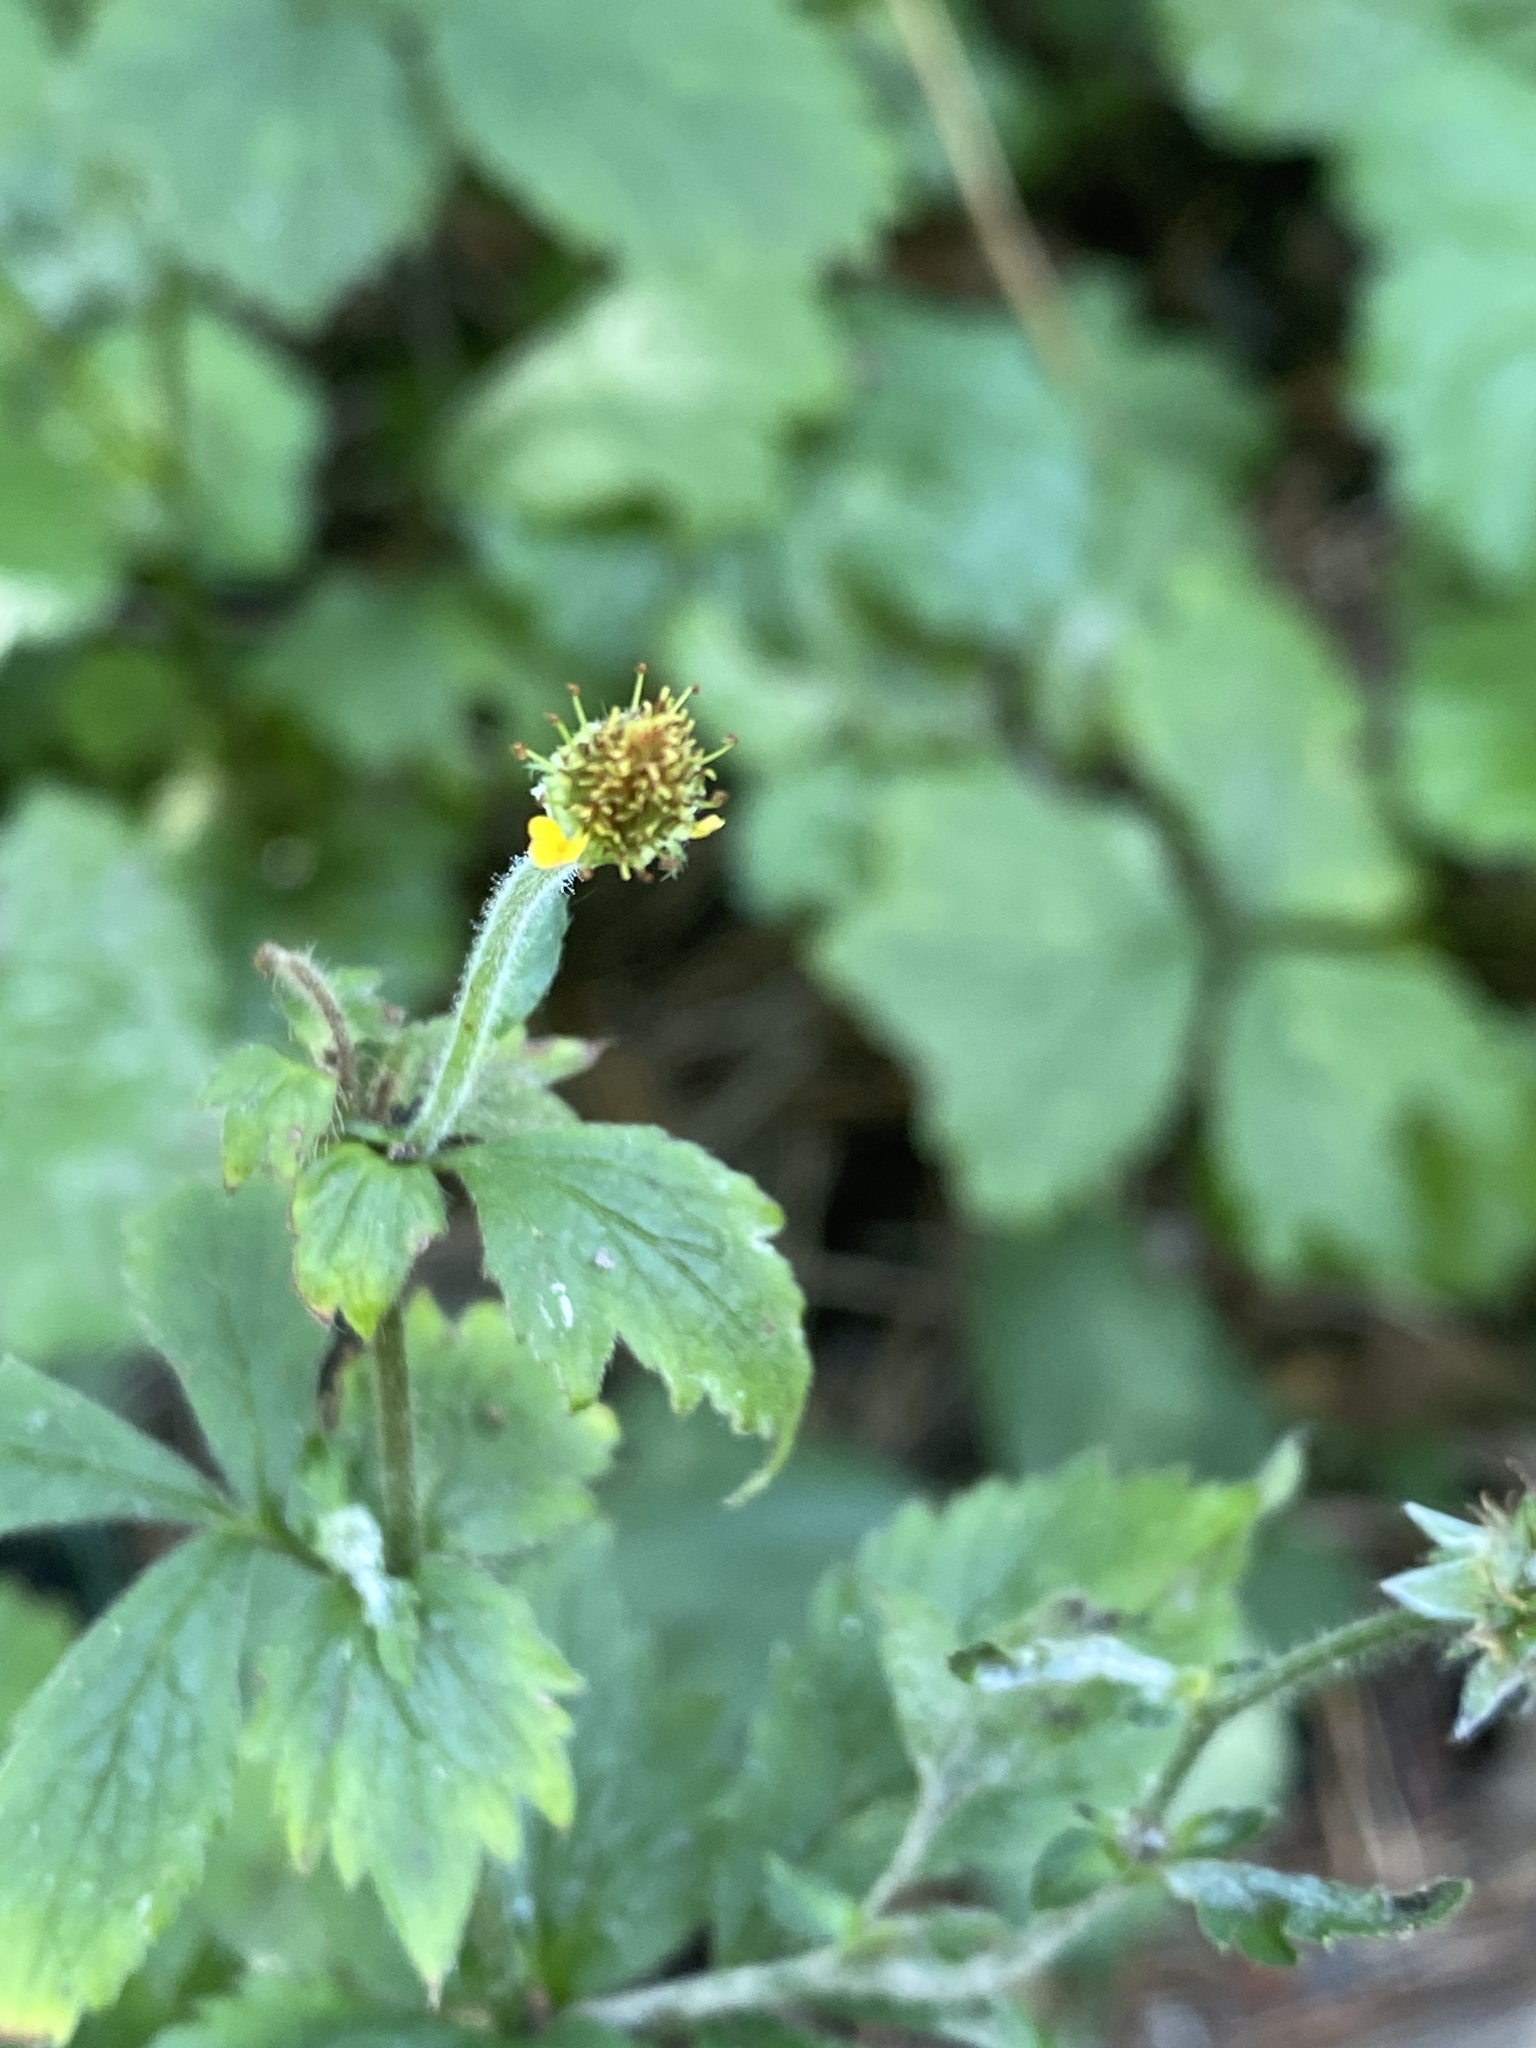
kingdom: Plantae
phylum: Tracheophyta
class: Magnoliopsida
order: Rosales
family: Rosaceae
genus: Geum
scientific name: Geum urbanum
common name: Wood avens
